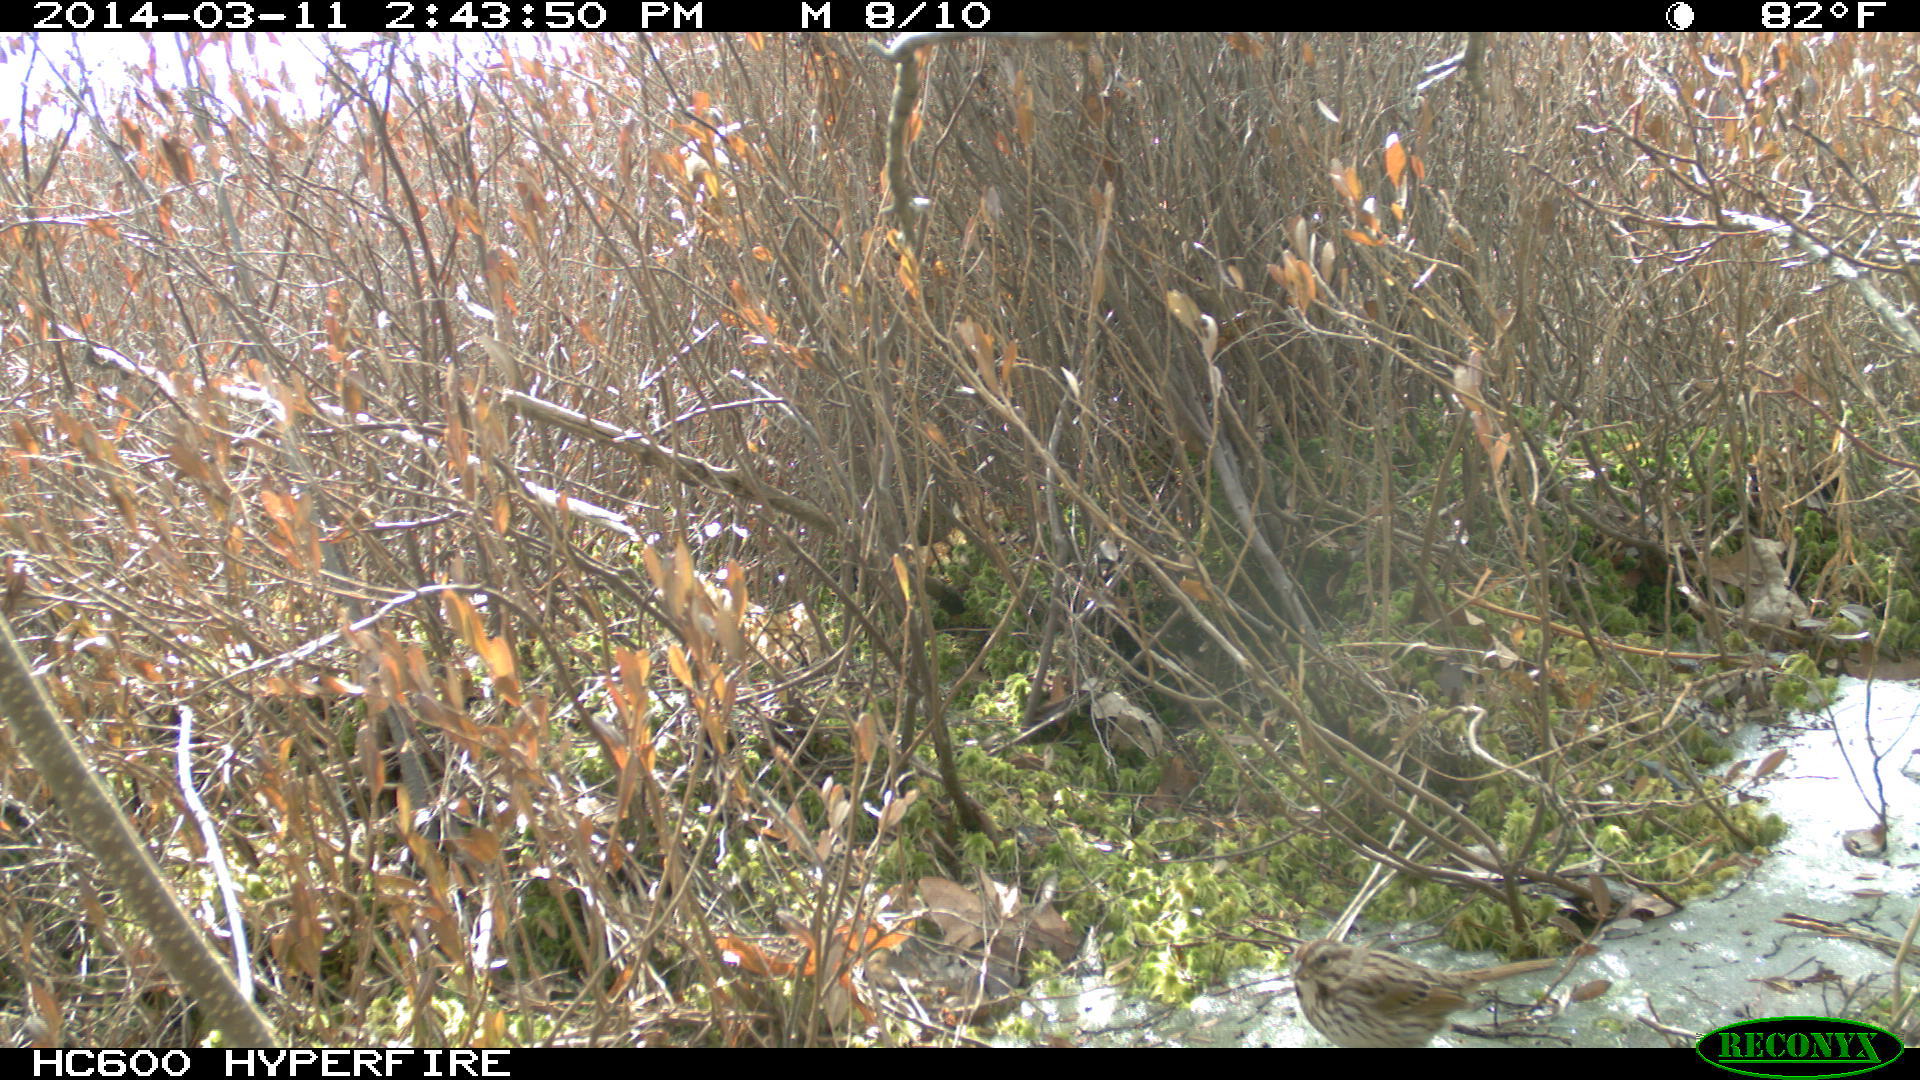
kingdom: Animalia
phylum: Chordata
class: Aves
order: Passeriformes
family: Passerellidae
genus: Melospiza
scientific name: Melospiza melodia
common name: Song sparrow
